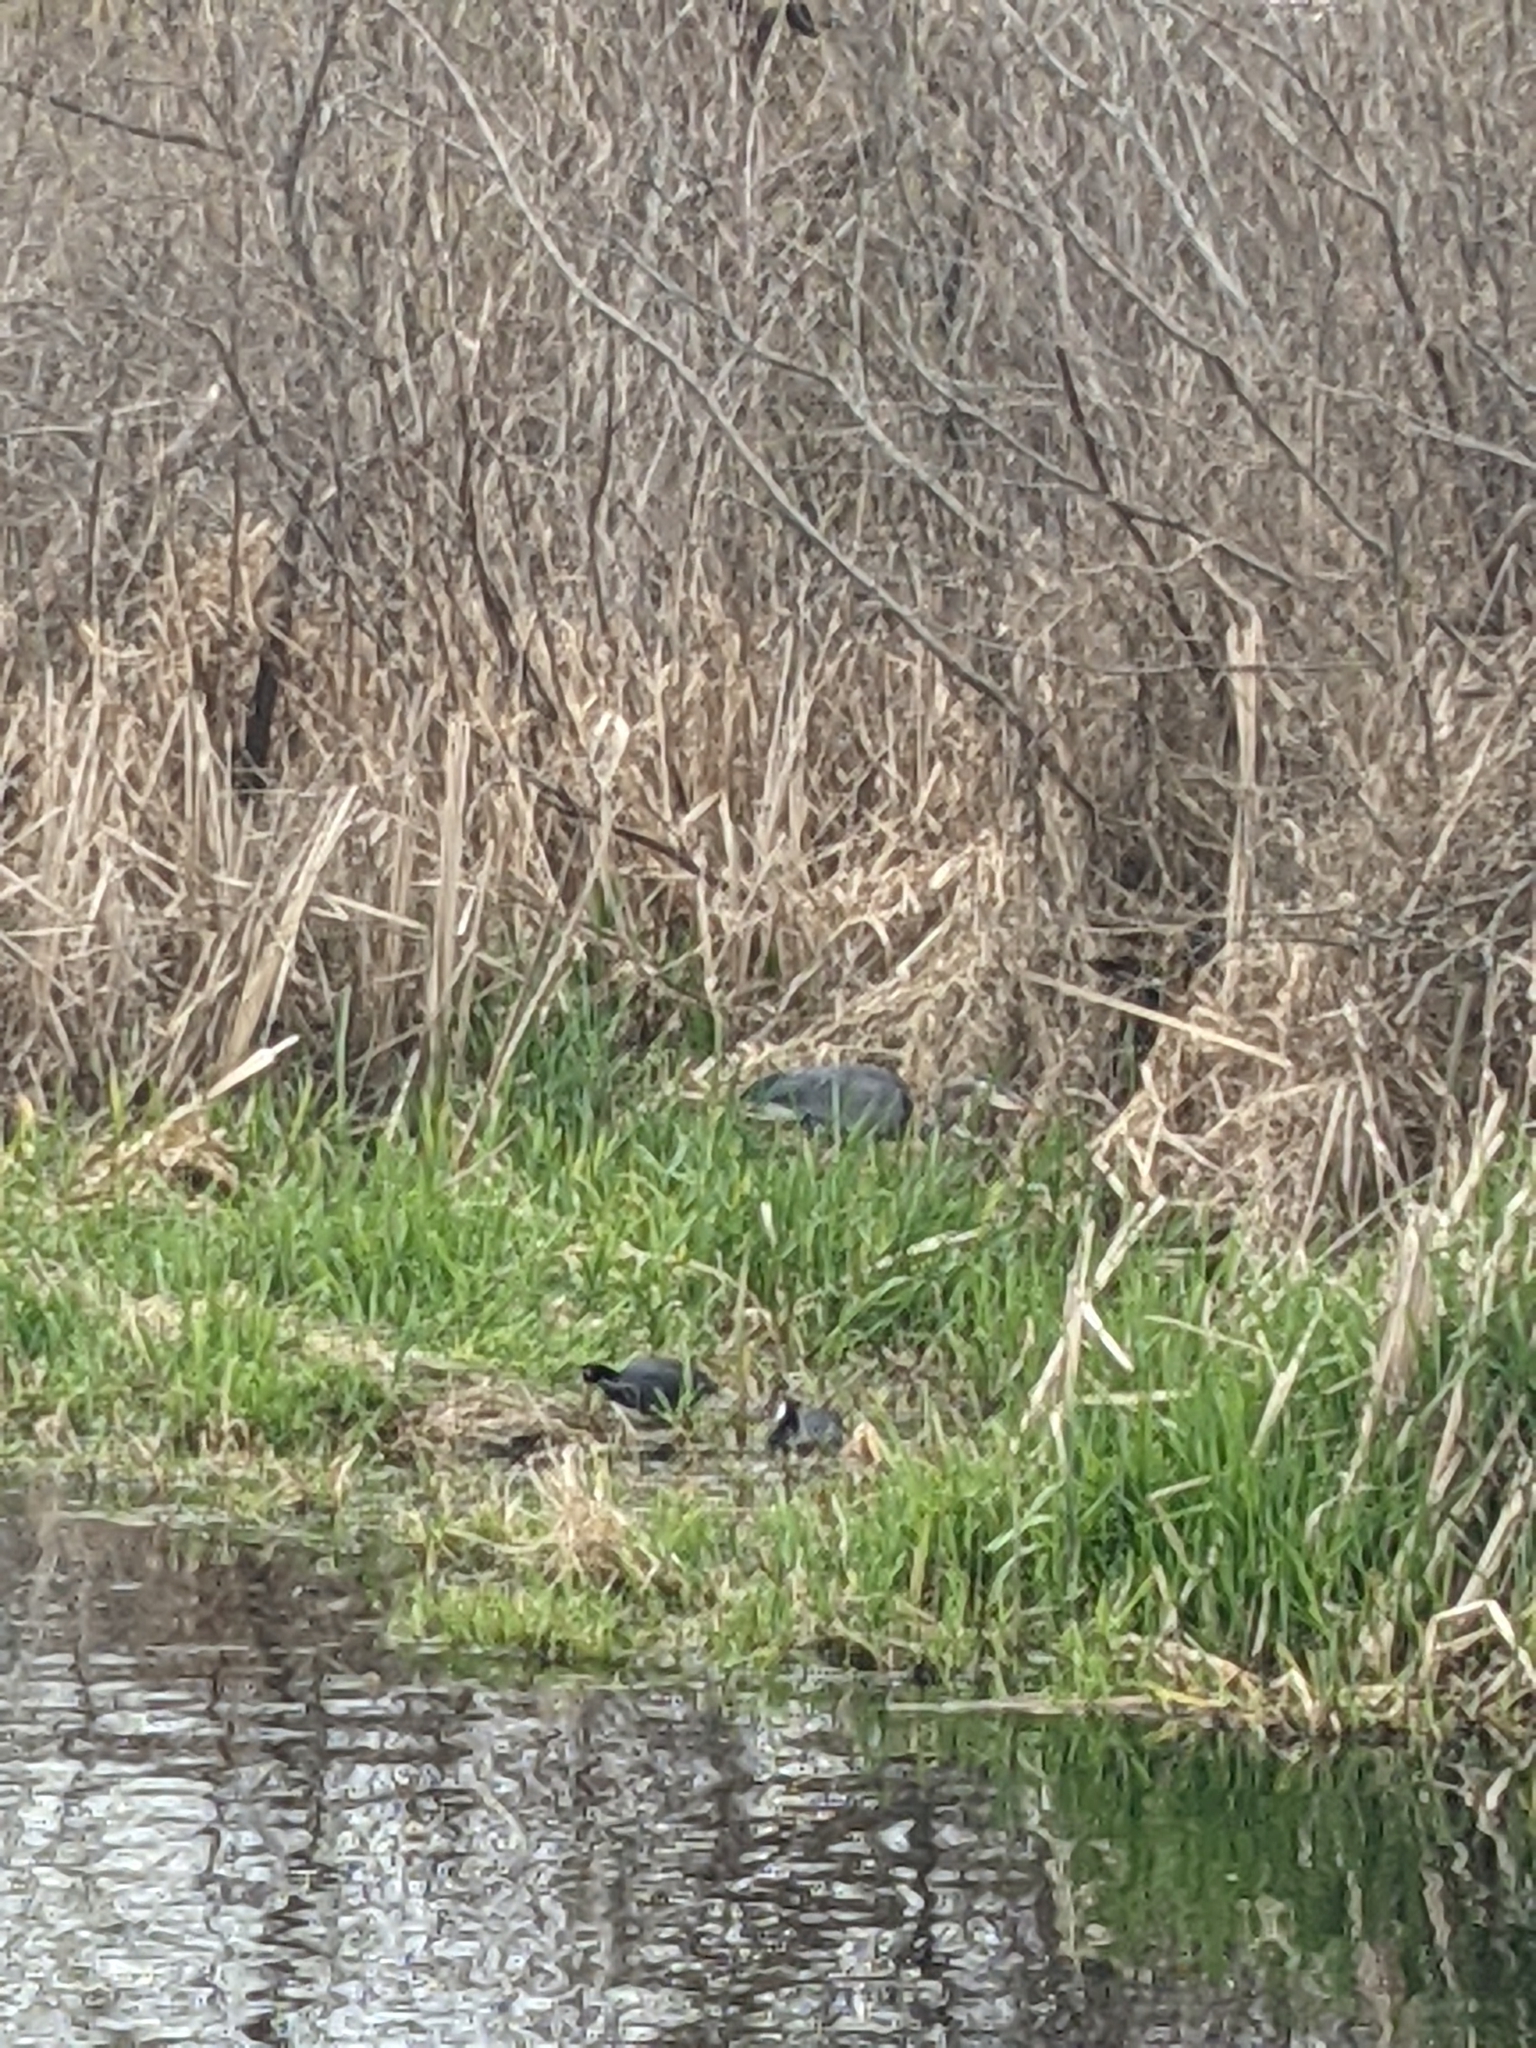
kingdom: Animalia
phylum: Chordata
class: Aves
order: Gruiformes
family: Rallidae
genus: Fulica
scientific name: Fulica americana
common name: American coot
